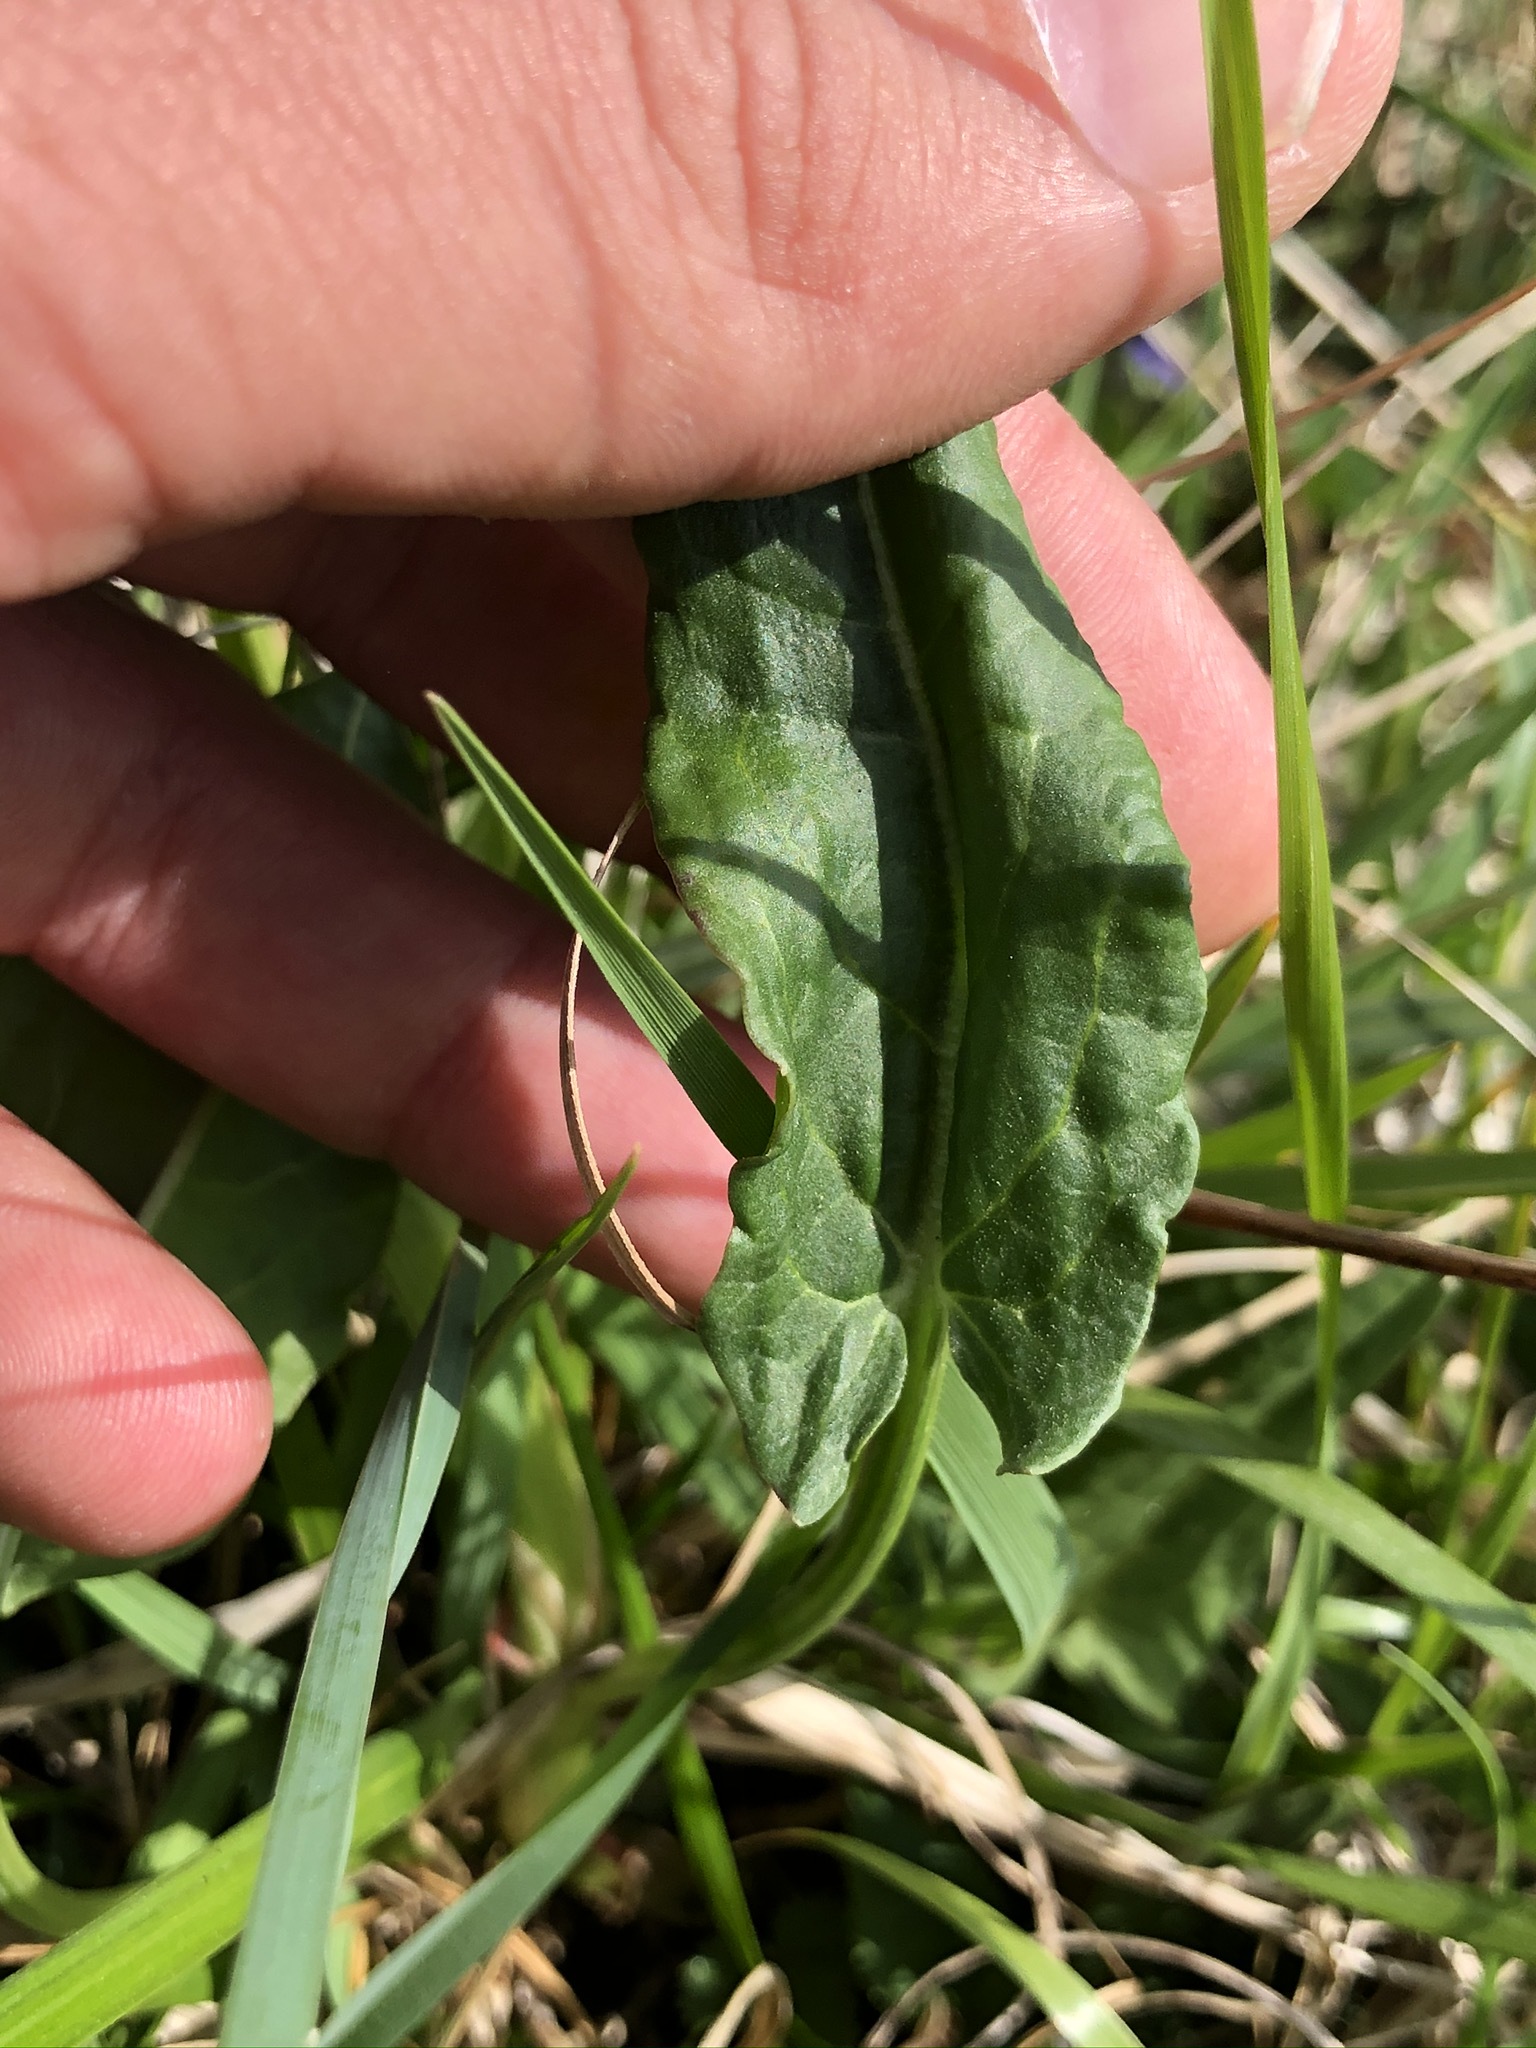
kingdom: Plantae
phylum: Tracheophyta
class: Magnoliopsida
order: Caryophyllales
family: Polygonaceae
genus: Rumex
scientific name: Rumex acetosa
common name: Garden sorrel
